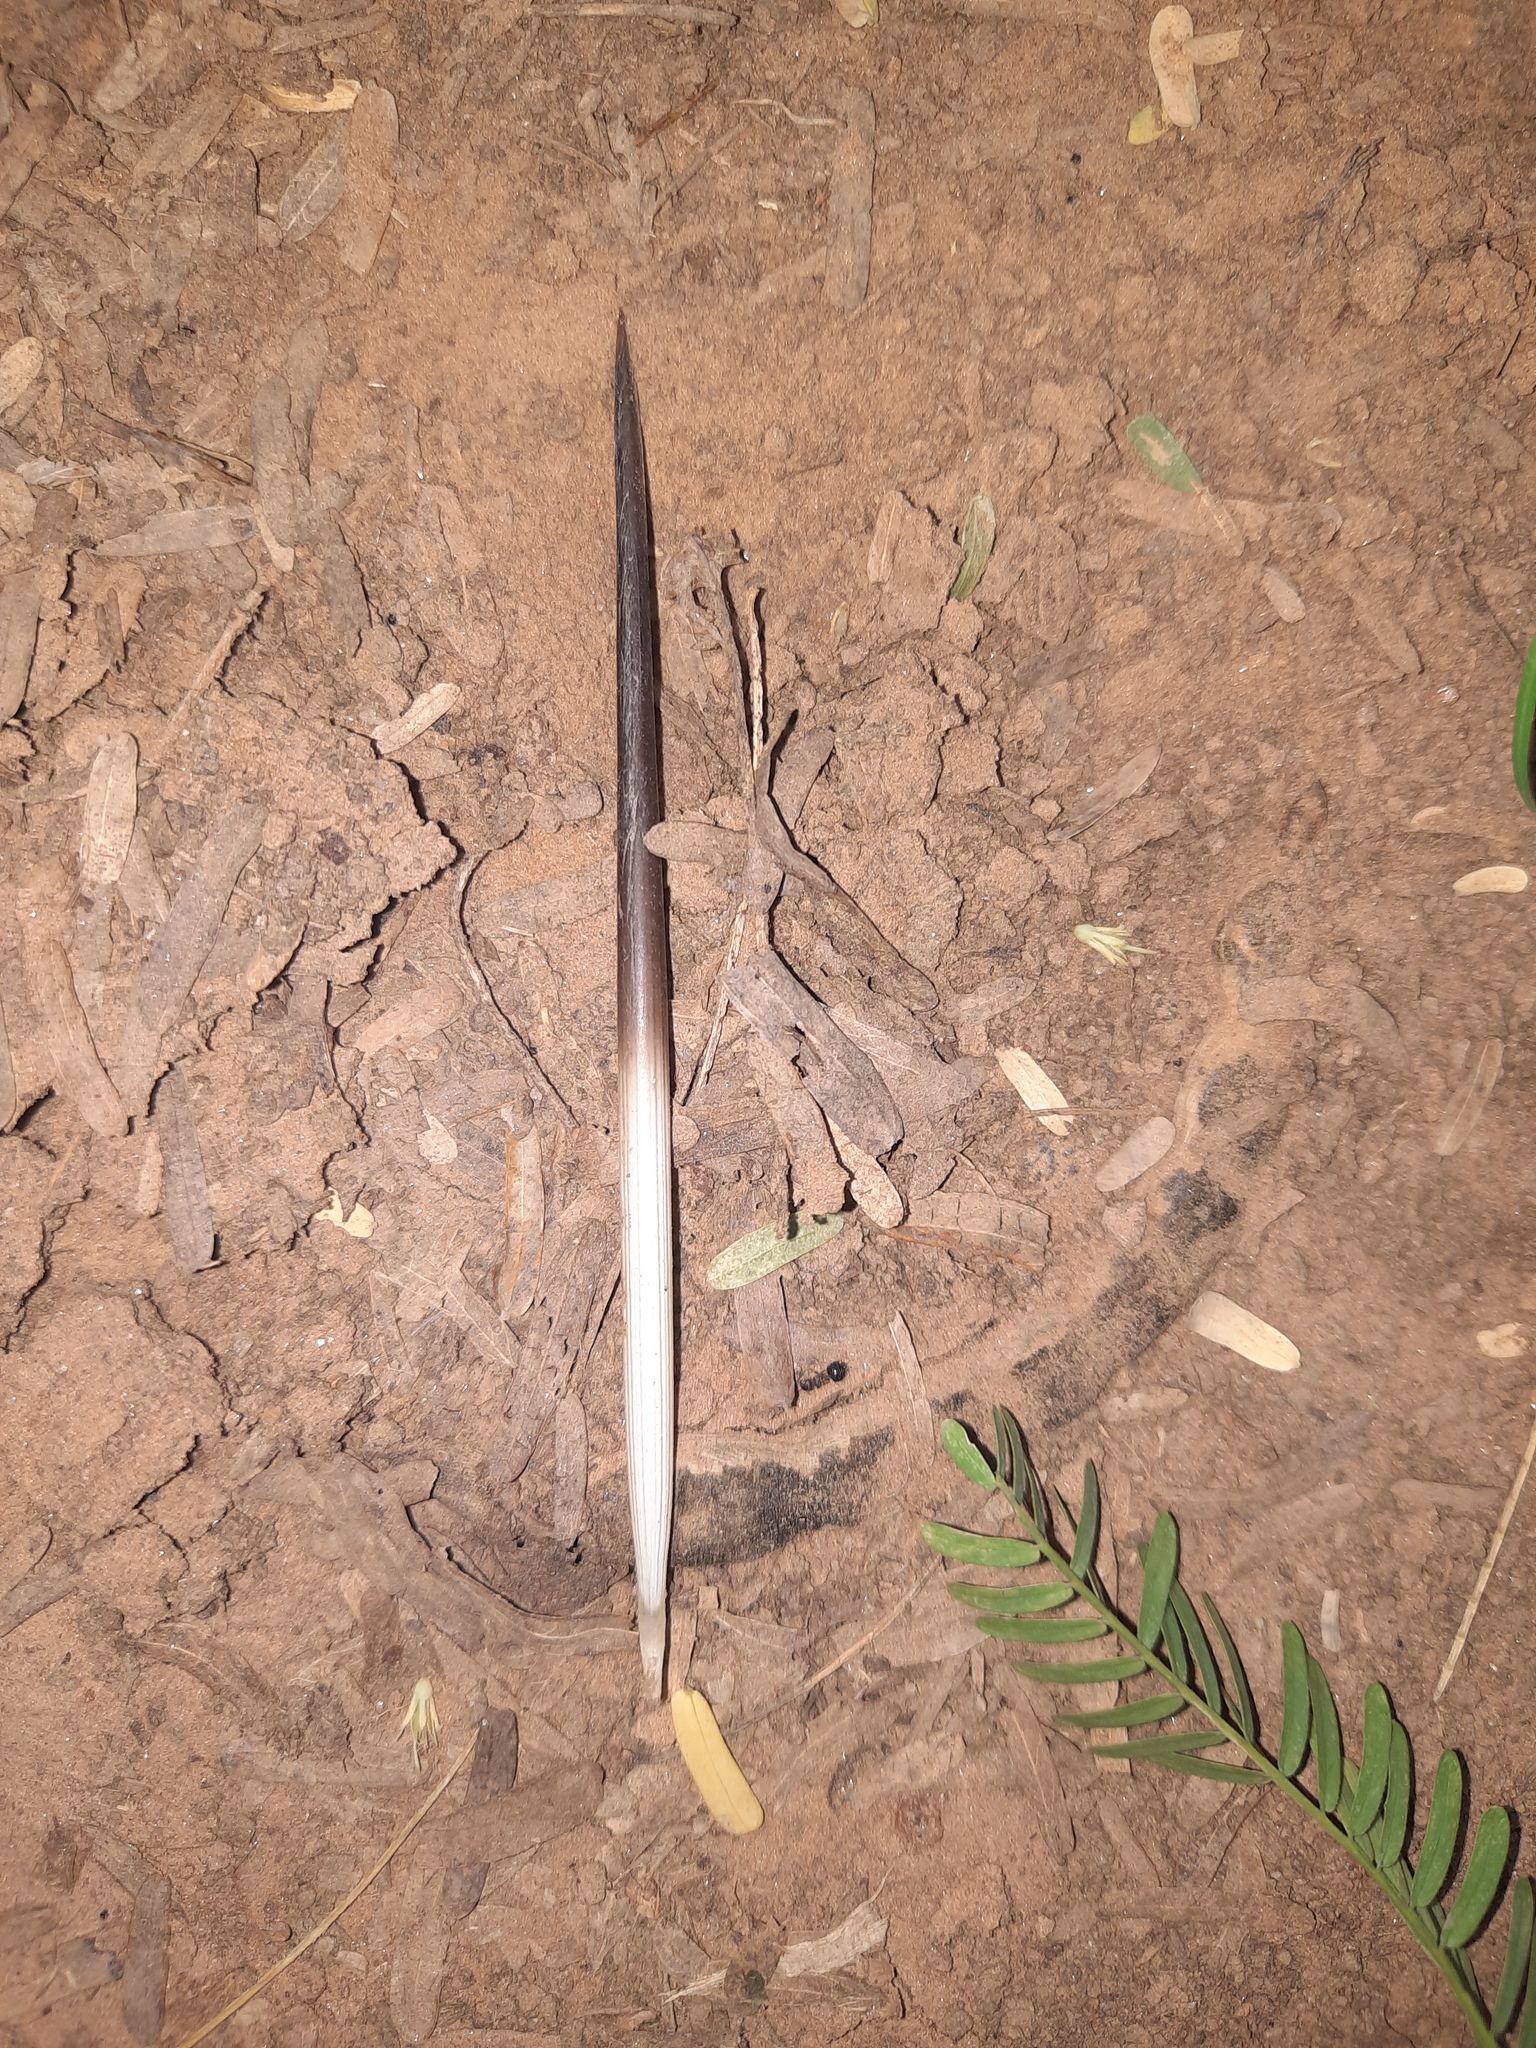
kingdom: Animalia
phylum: Chordata
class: Mammalia
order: Rodentia
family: Hystricidae
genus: Hystrix
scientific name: Hystrix indica
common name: Indian crested porcupine
